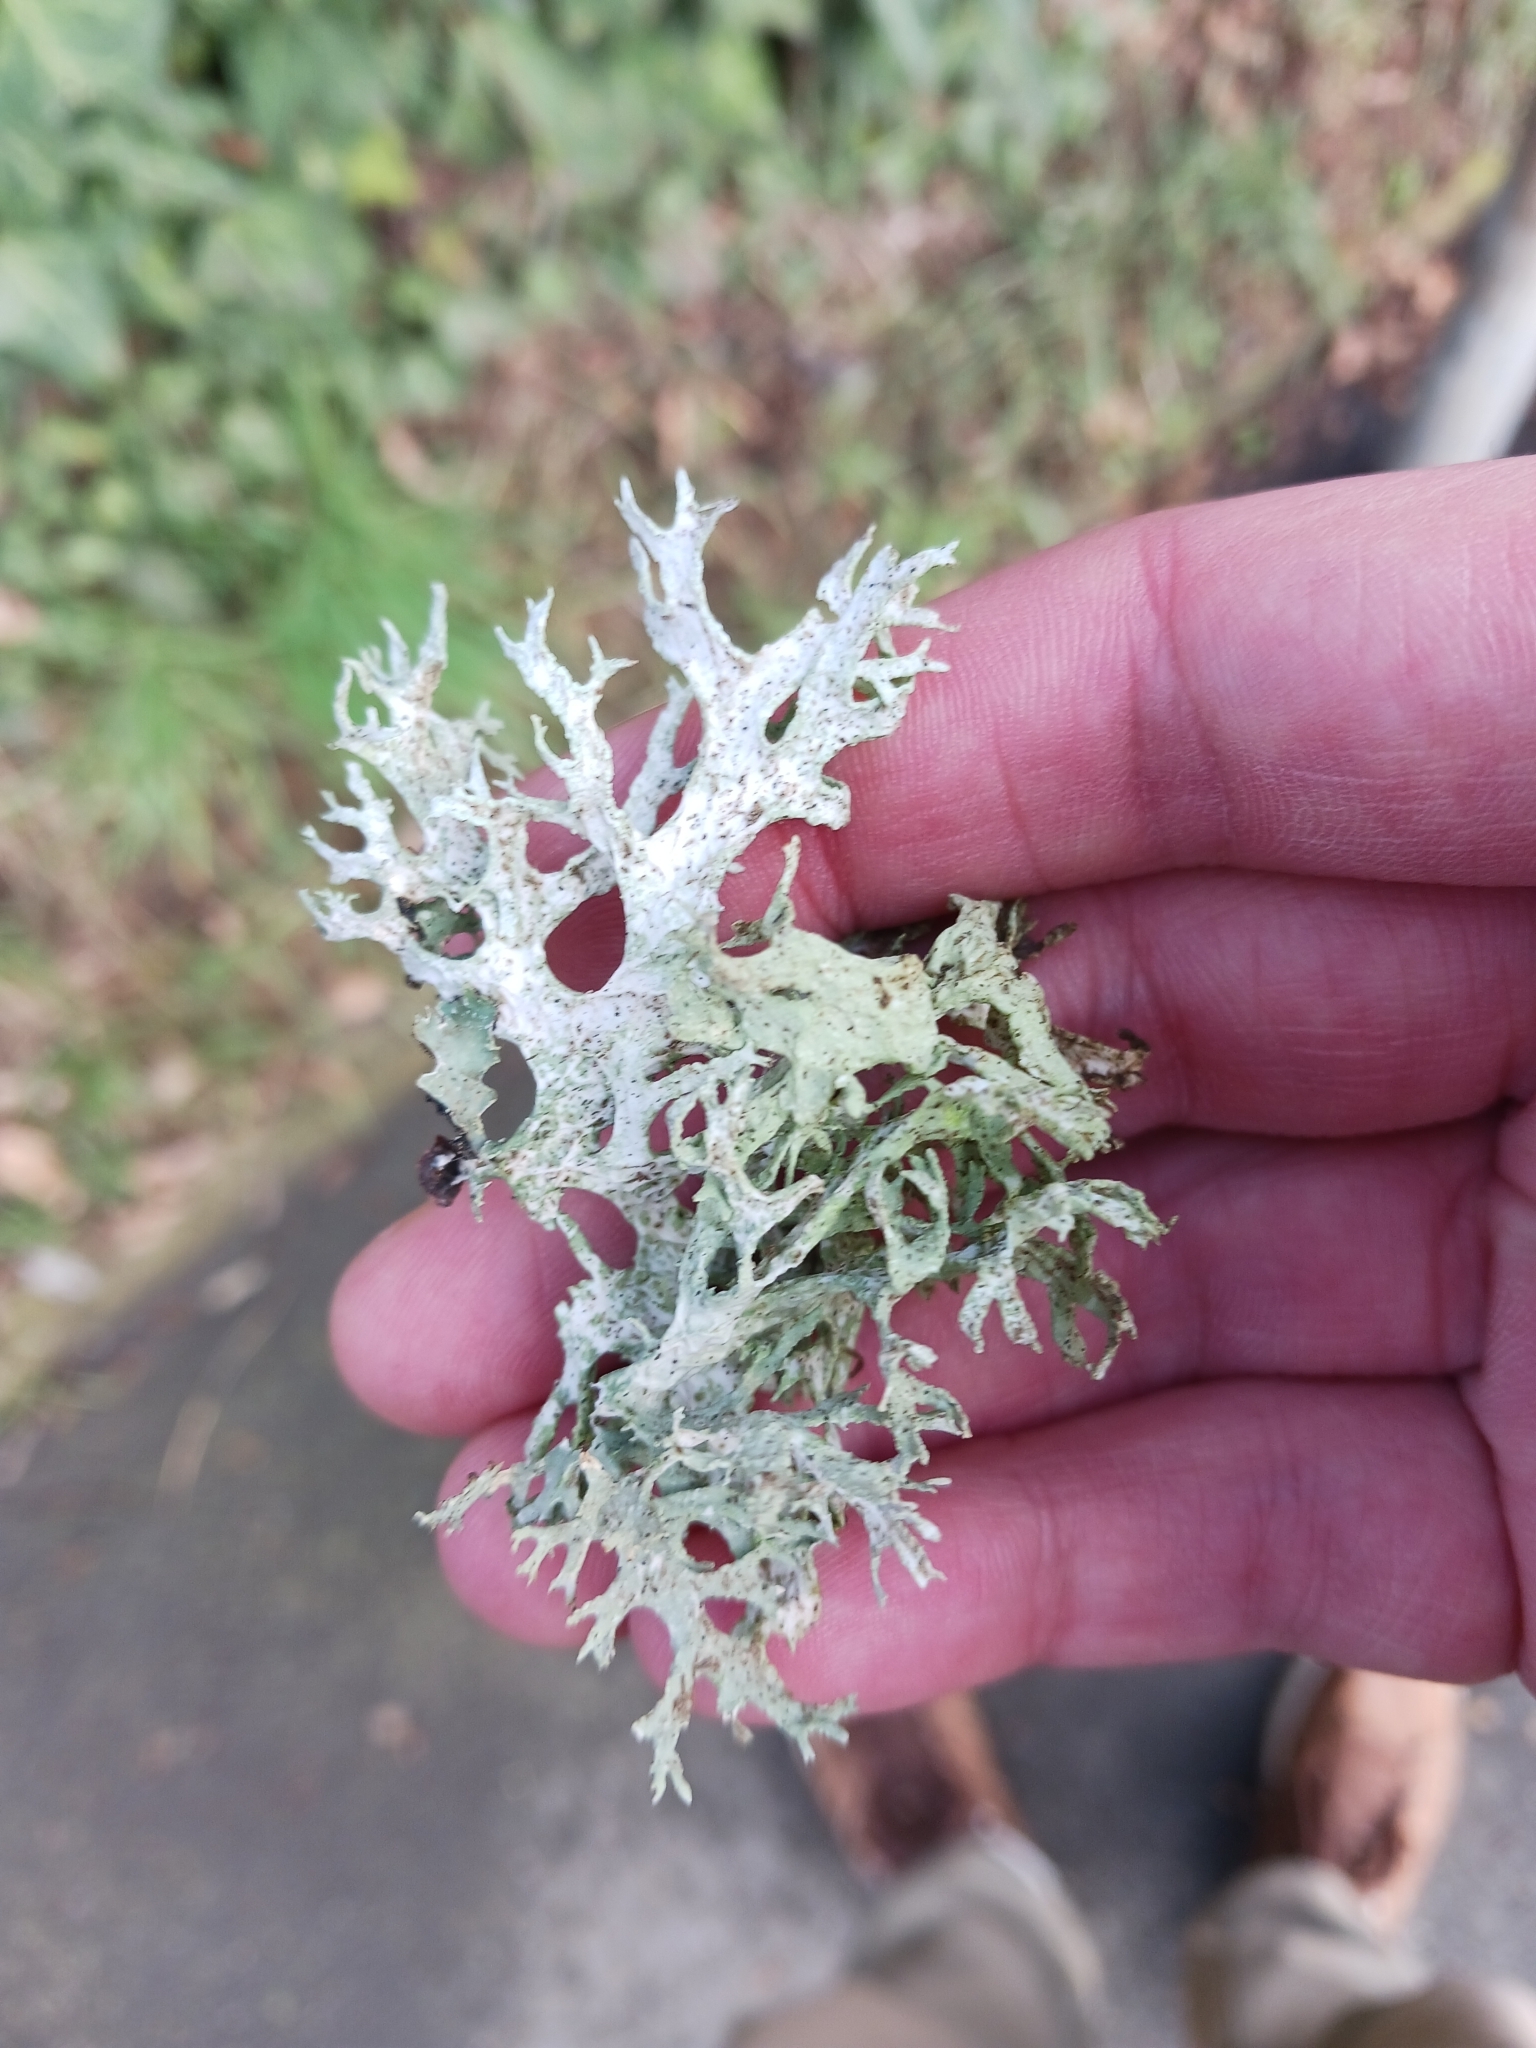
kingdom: Fungi
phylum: Ascomycota
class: Lecanoromycetes
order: Lecanorales
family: Parmeliaceae
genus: Evernia
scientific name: Evernia prunastri
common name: Oak moss
